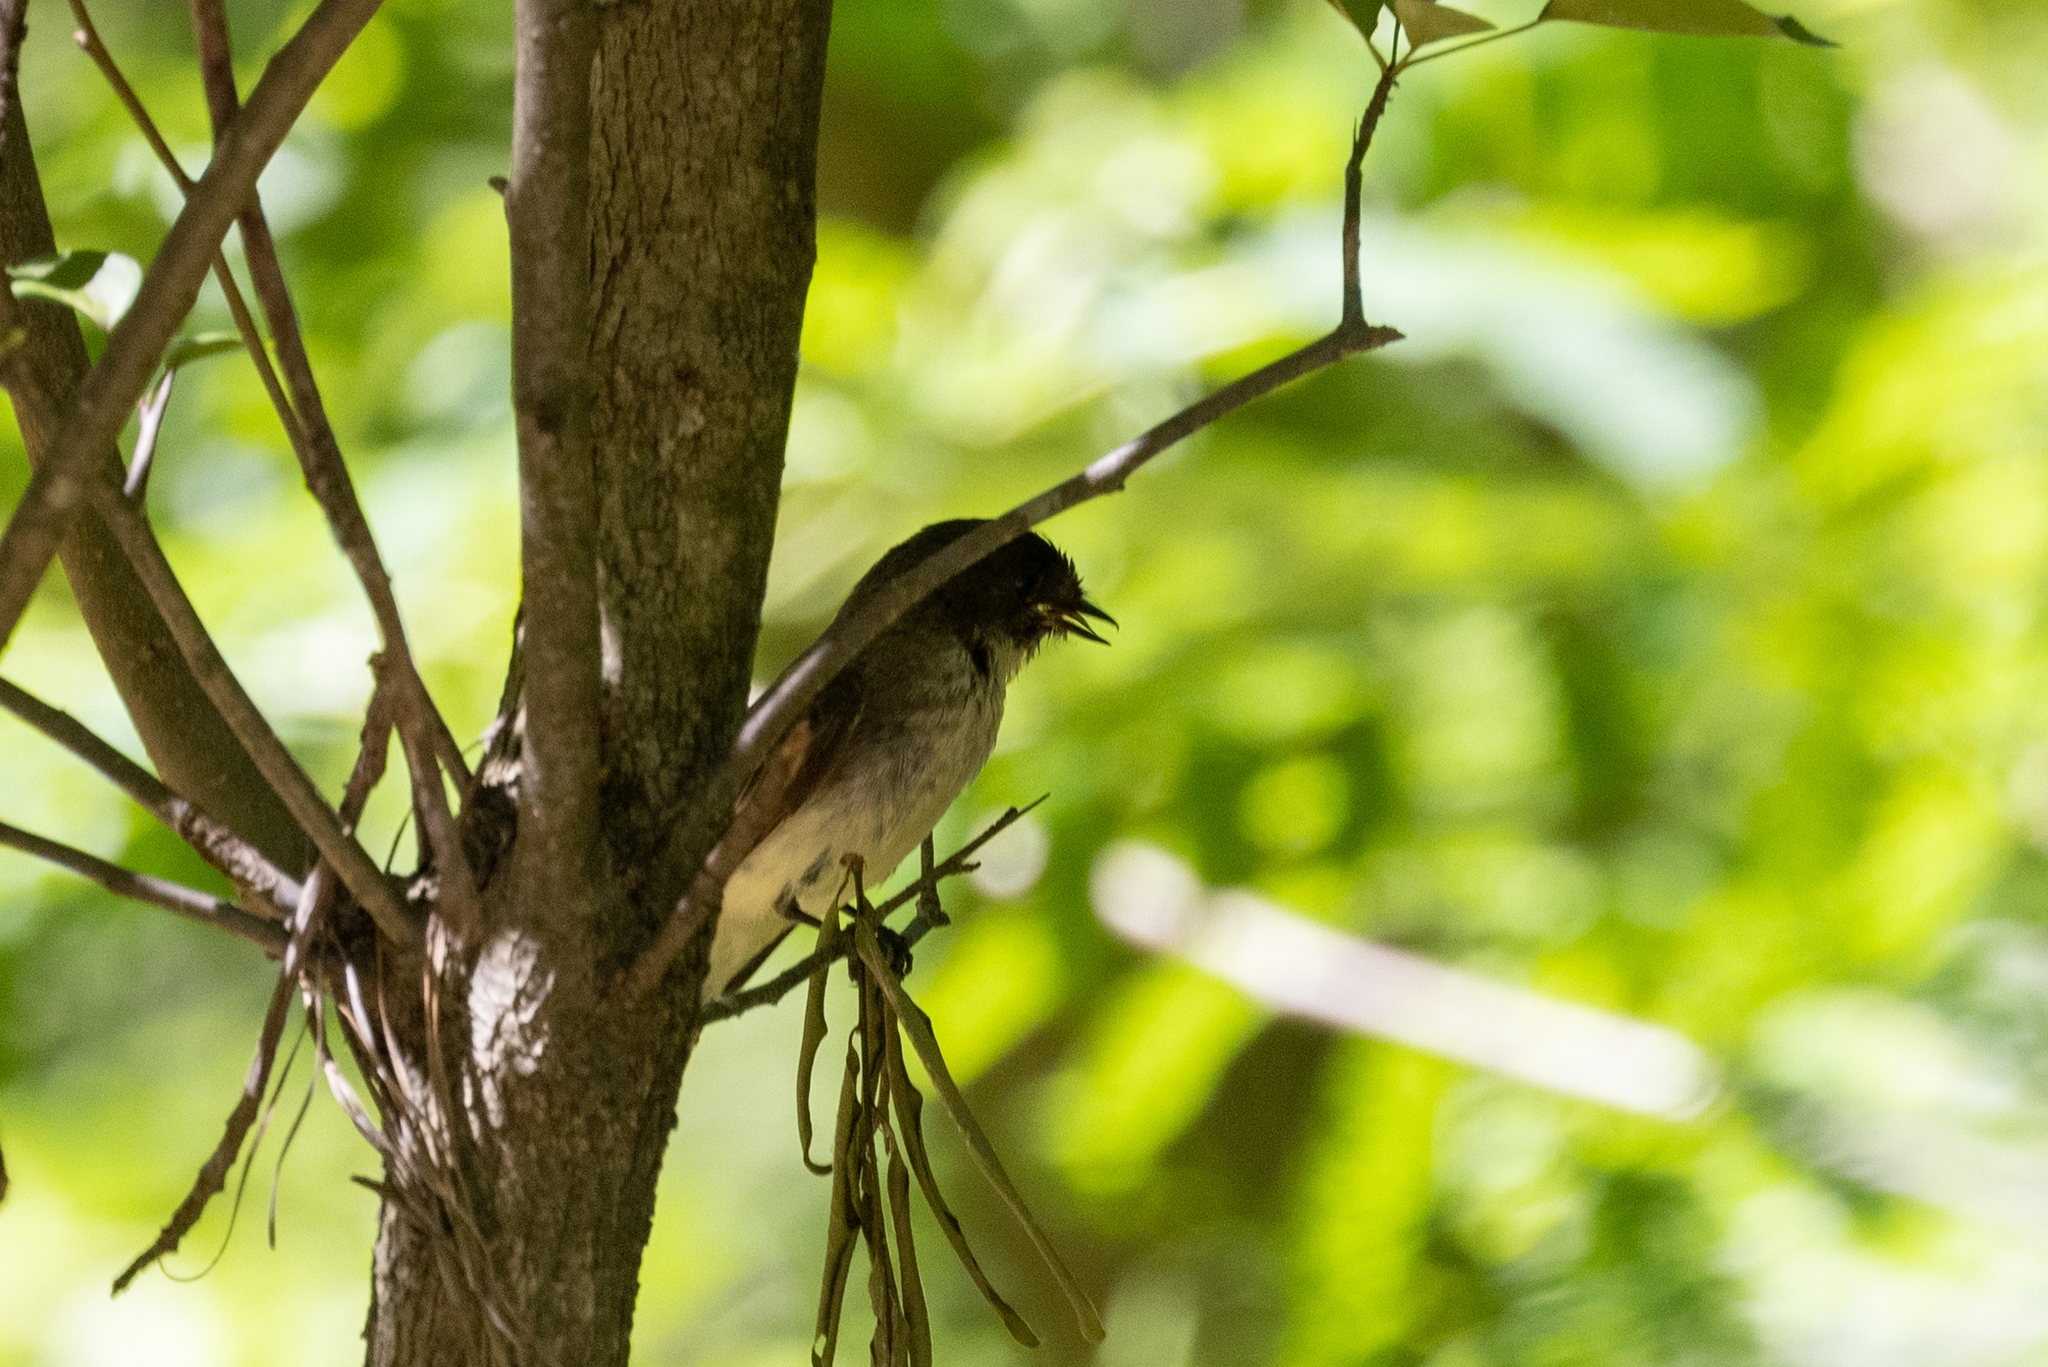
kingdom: Animalia
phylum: Chordata
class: Aves
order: Passeriformes
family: Tyrannidae
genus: Sayornis
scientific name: Sayornis phoebe
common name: Eastern phoebe
